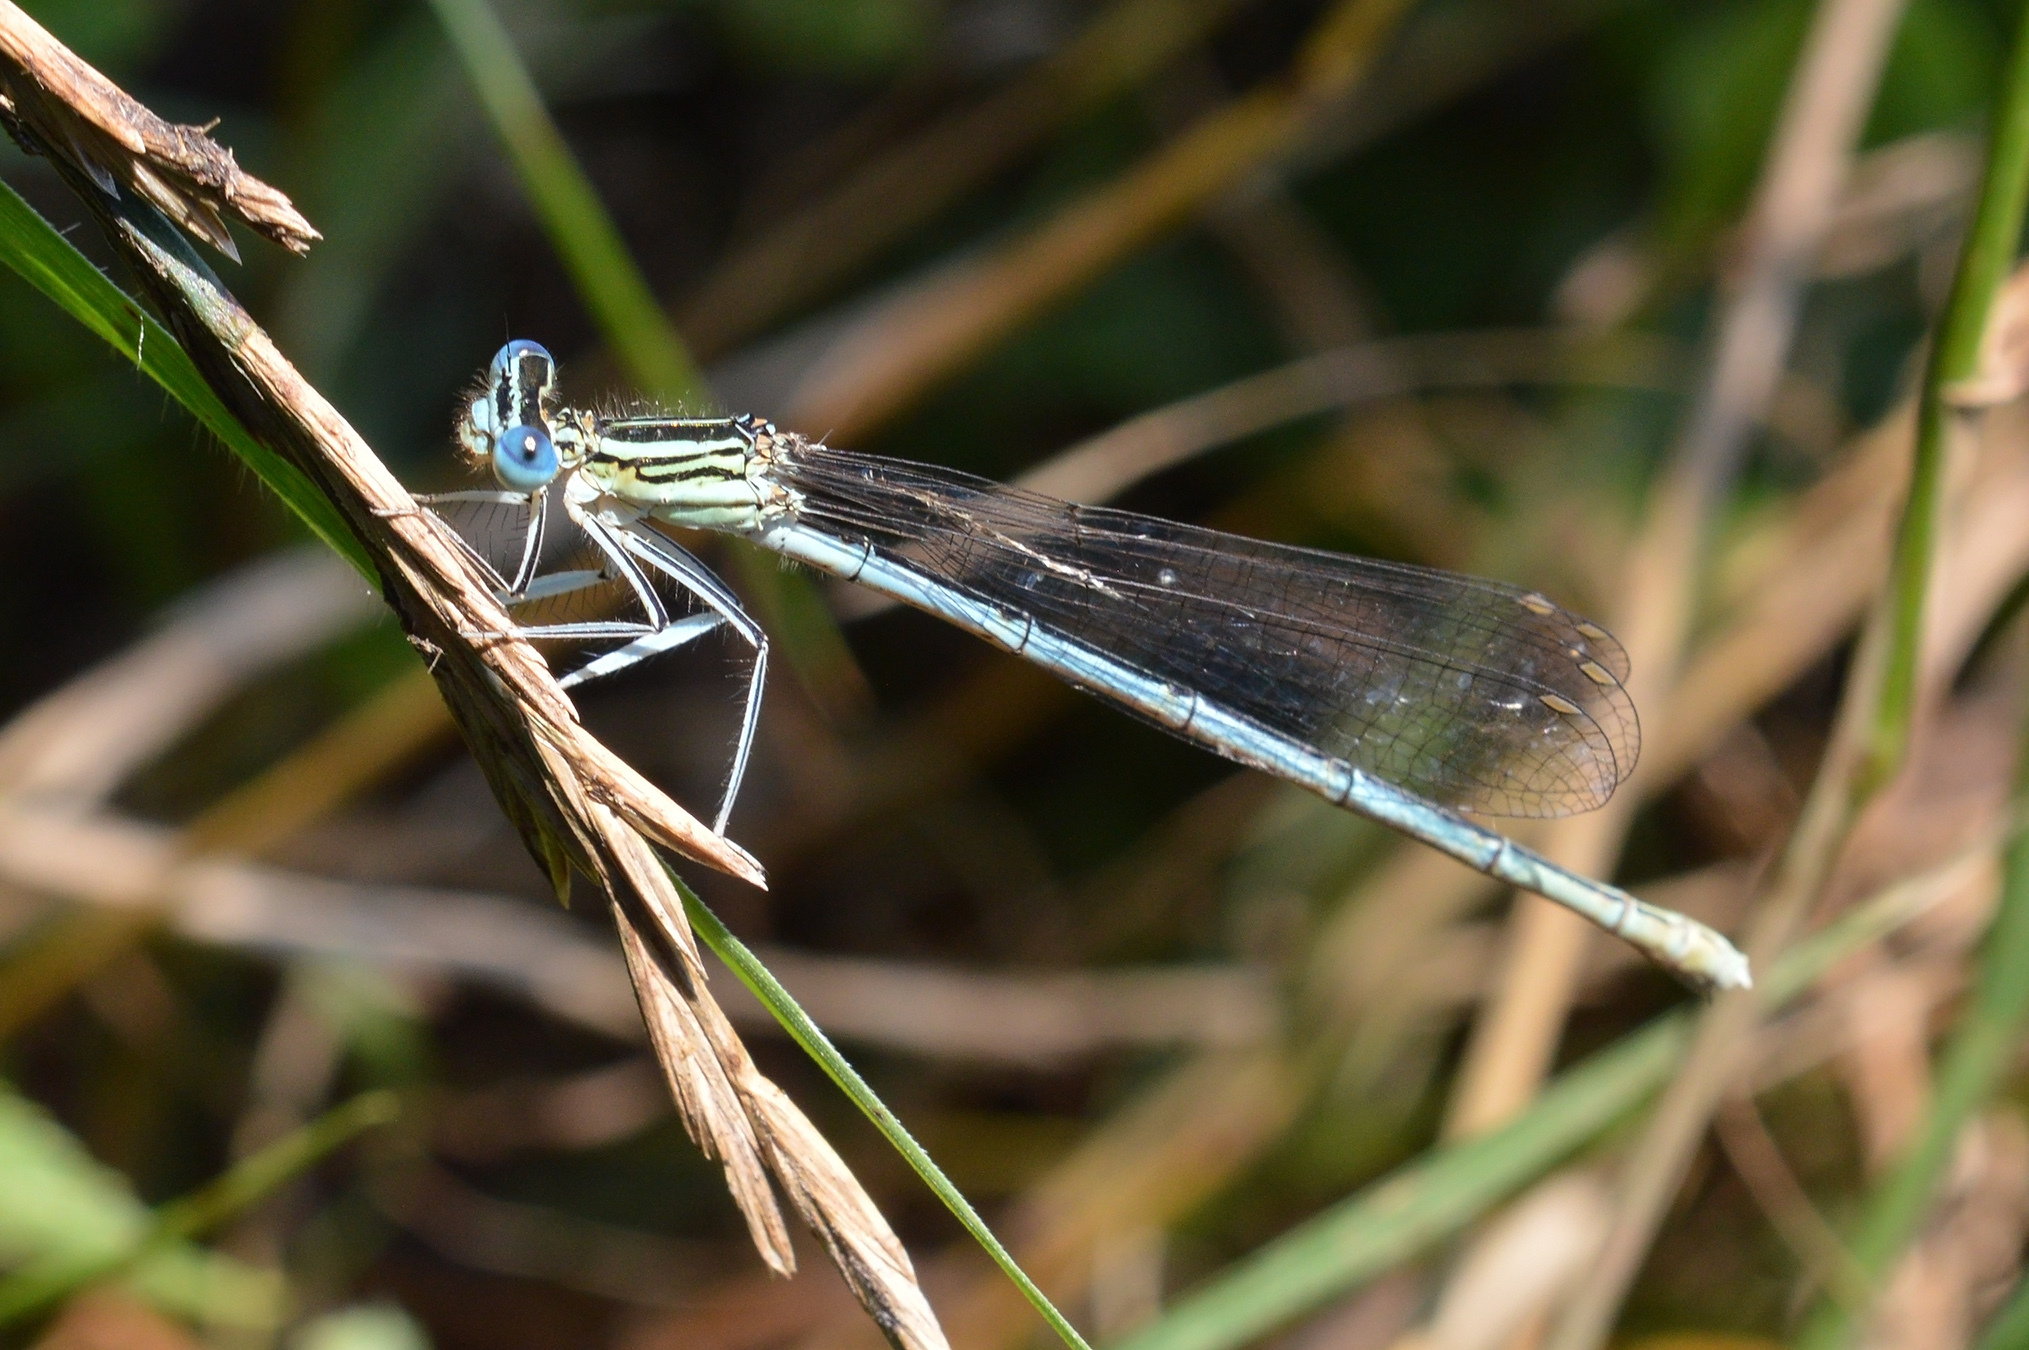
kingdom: Animalia
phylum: Arthropoda
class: Insecta
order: Odonata
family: Platycnemididae
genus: Platycnemis
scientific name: Platycnemis pennipes
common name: White-legged damselfly
